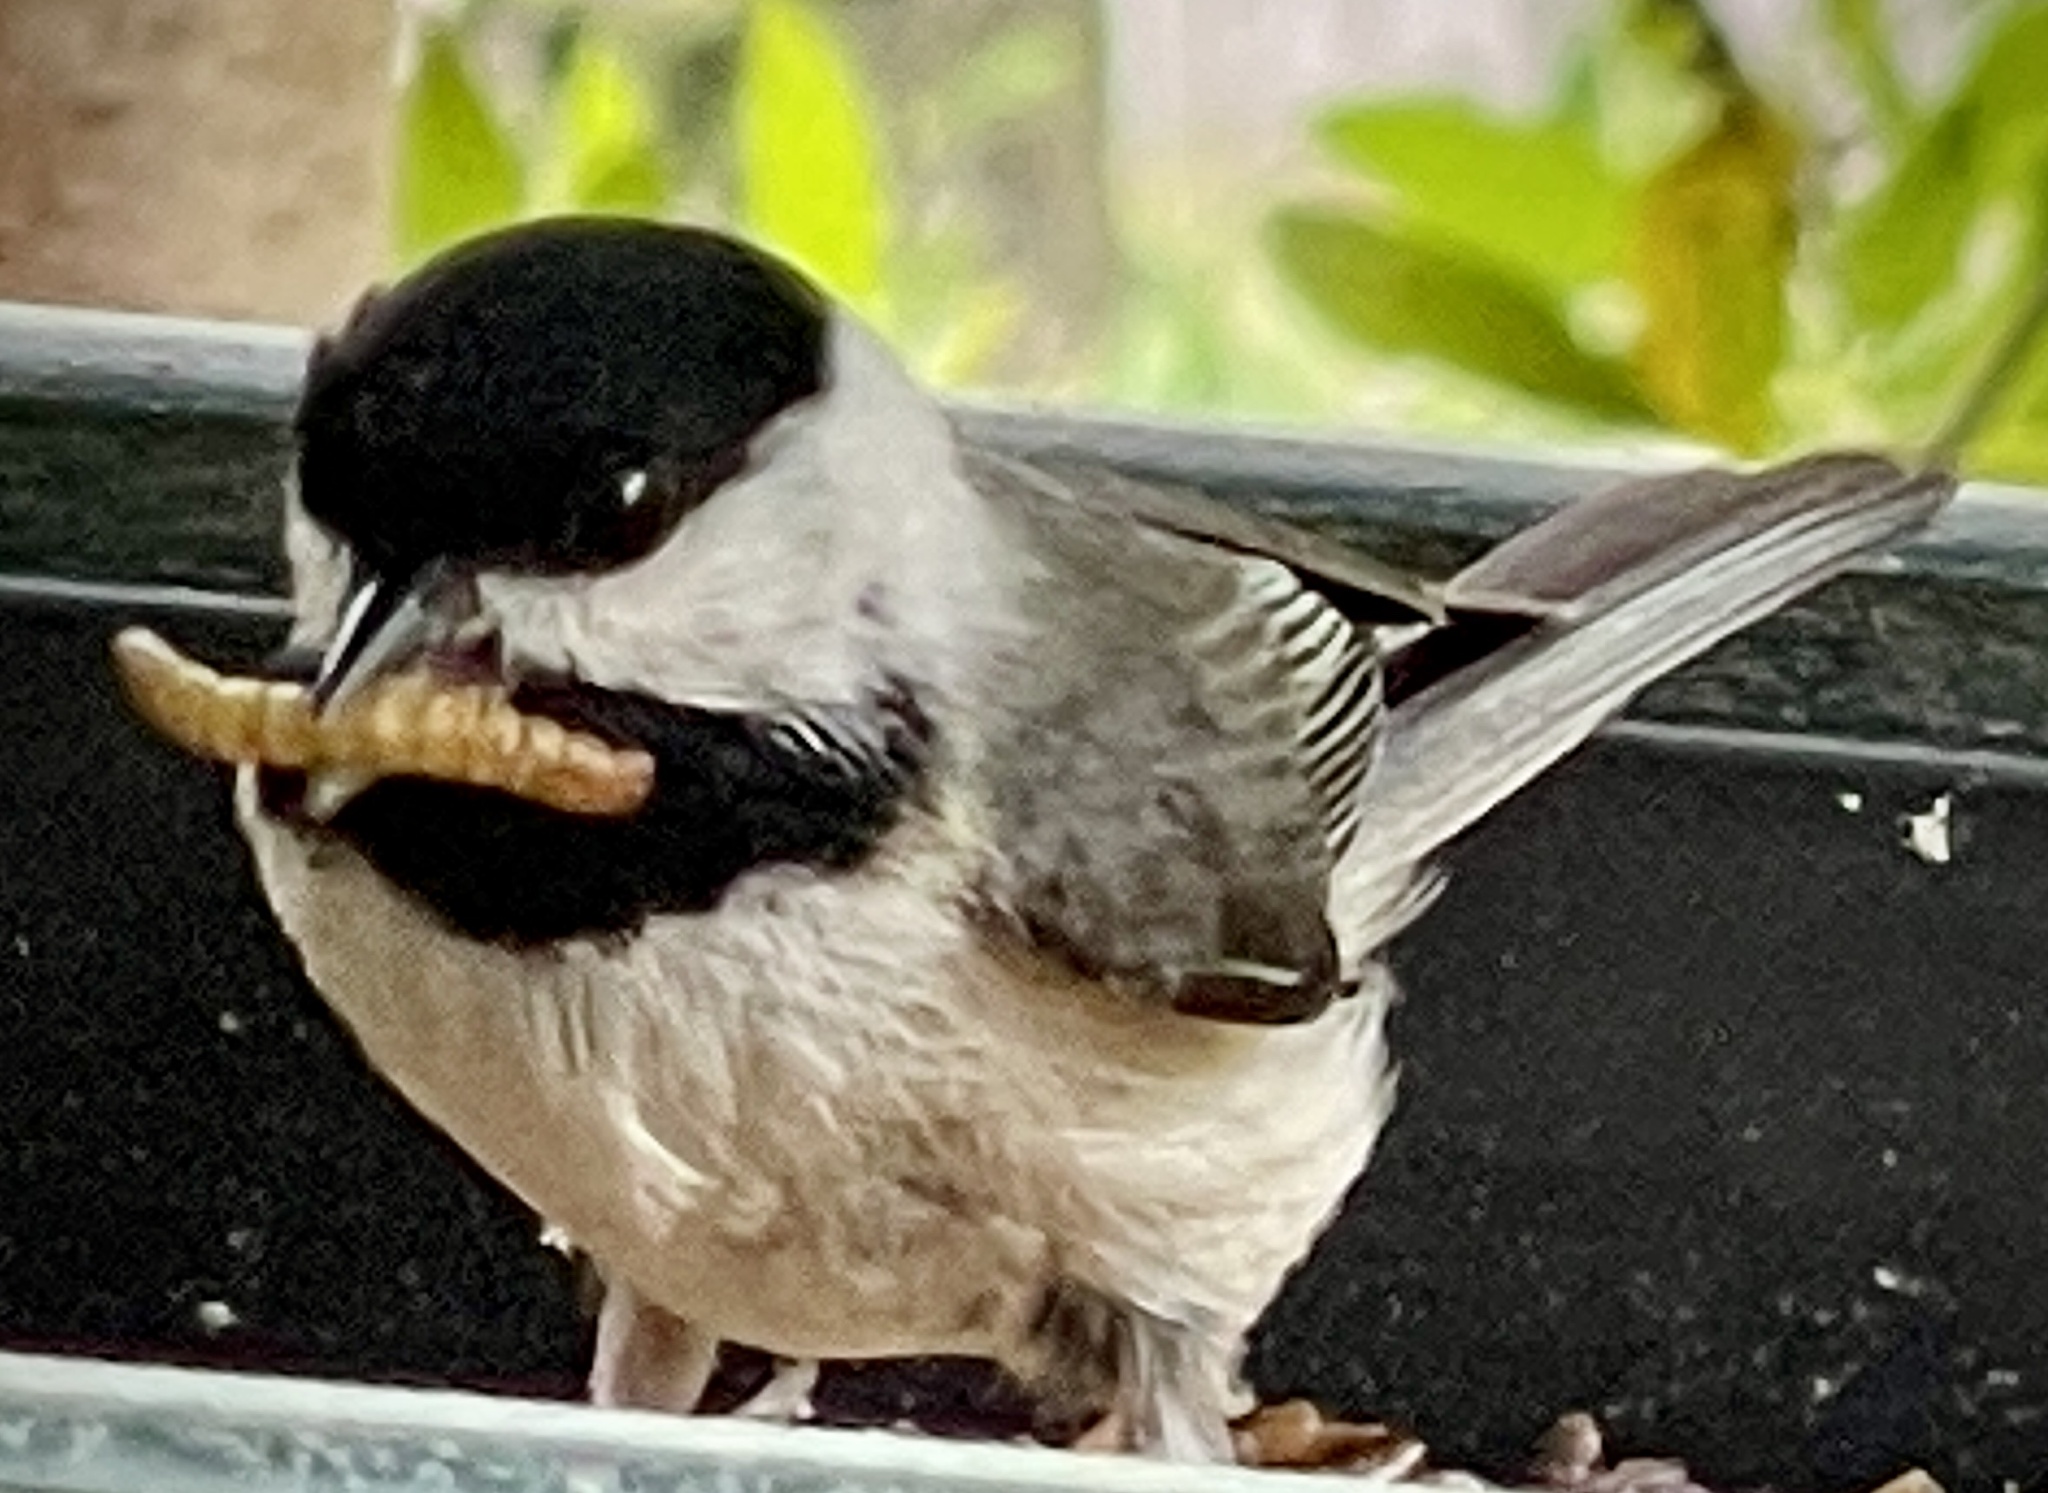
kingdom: Animalia
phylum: Chordata
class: Aves
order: Passeriformes
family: Paridae
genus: Poecile
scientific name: Poecile carolinensis
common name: Carolina chickadee
